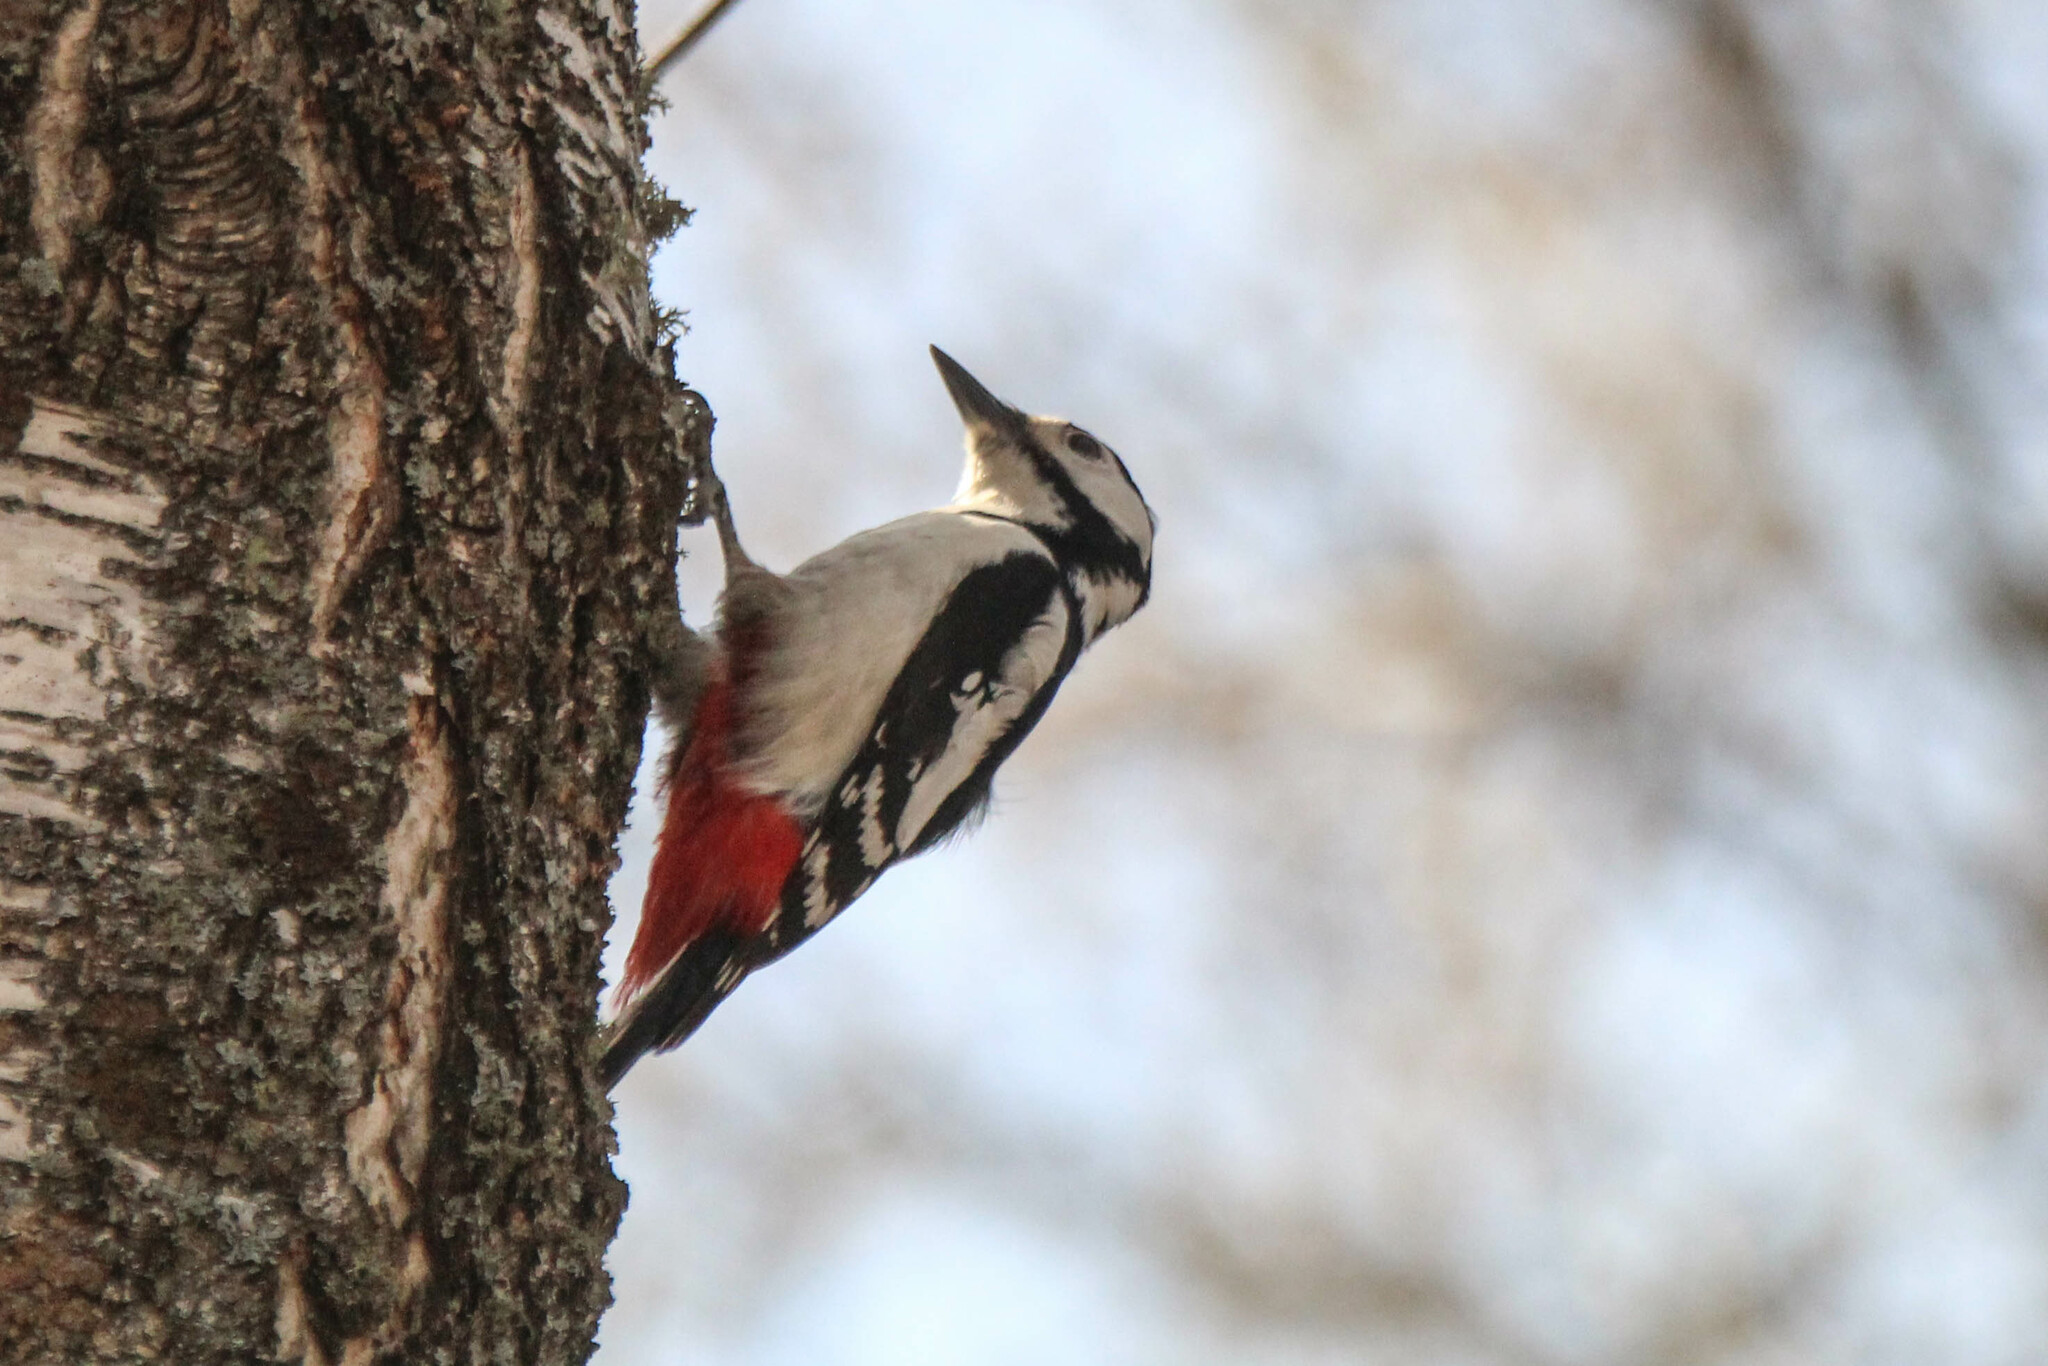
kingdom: Animalia
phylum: Chordata
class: Aves
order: Piciformes
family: Picidae
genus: Dendrocopos
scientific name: Dendrocopos major
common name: Great spotted woodpecker
